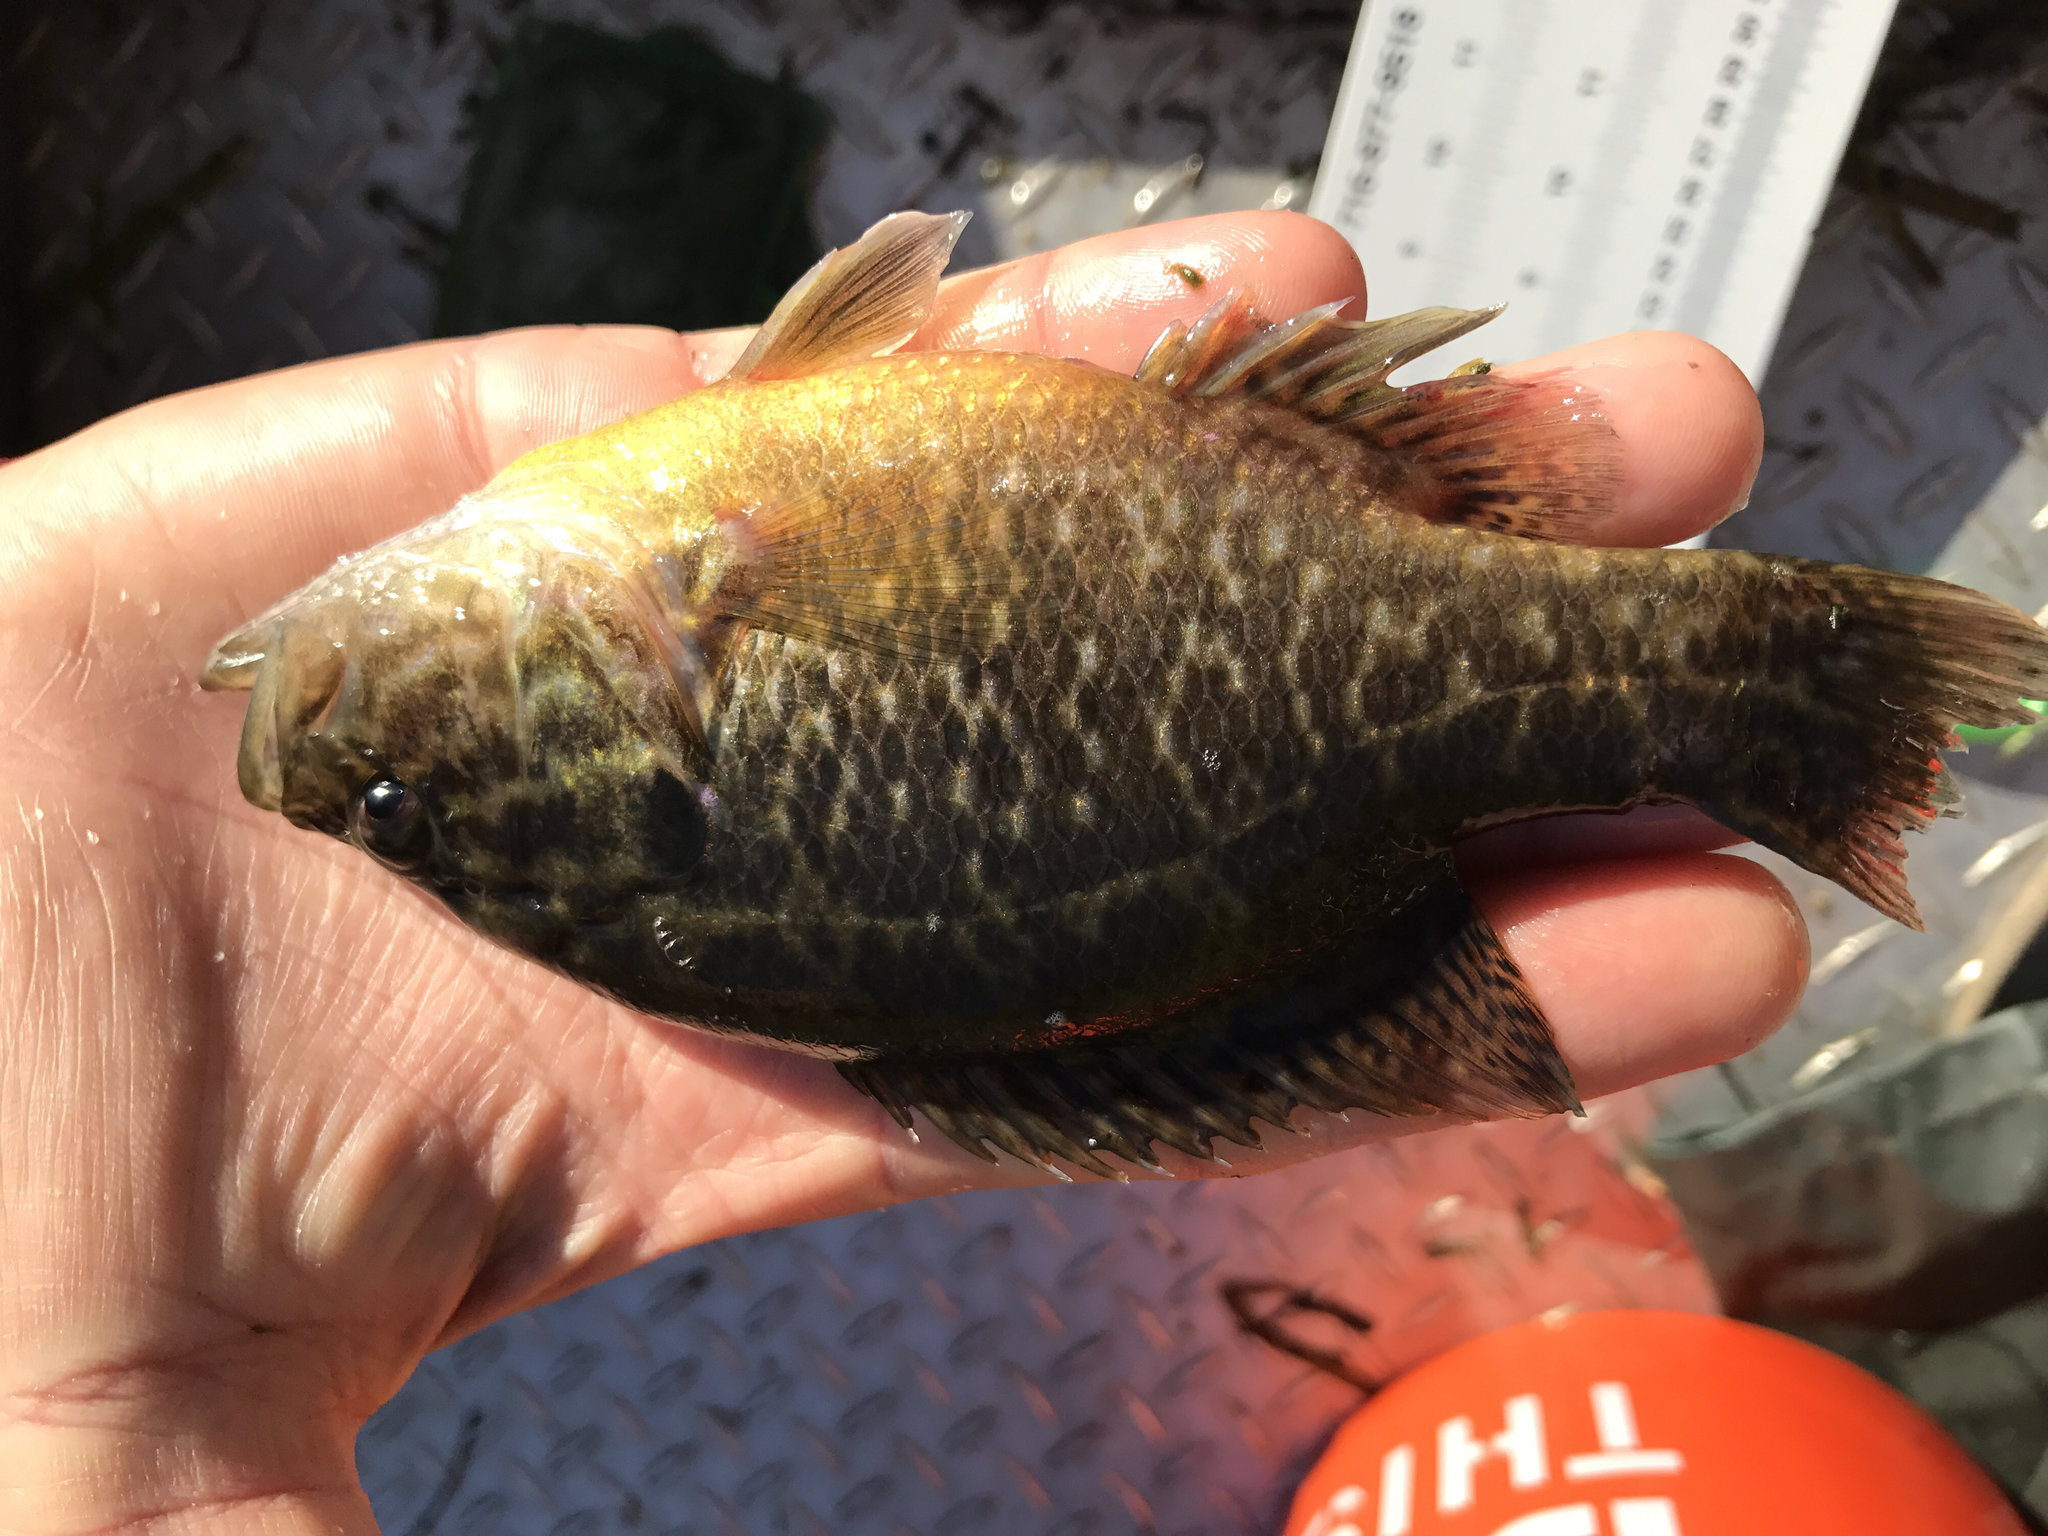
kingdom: Animalia
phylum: Chordata
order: Perciformes
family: Centrarchidae
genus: Lepomis
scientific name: Lepomis gulosus
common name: Warmouth
